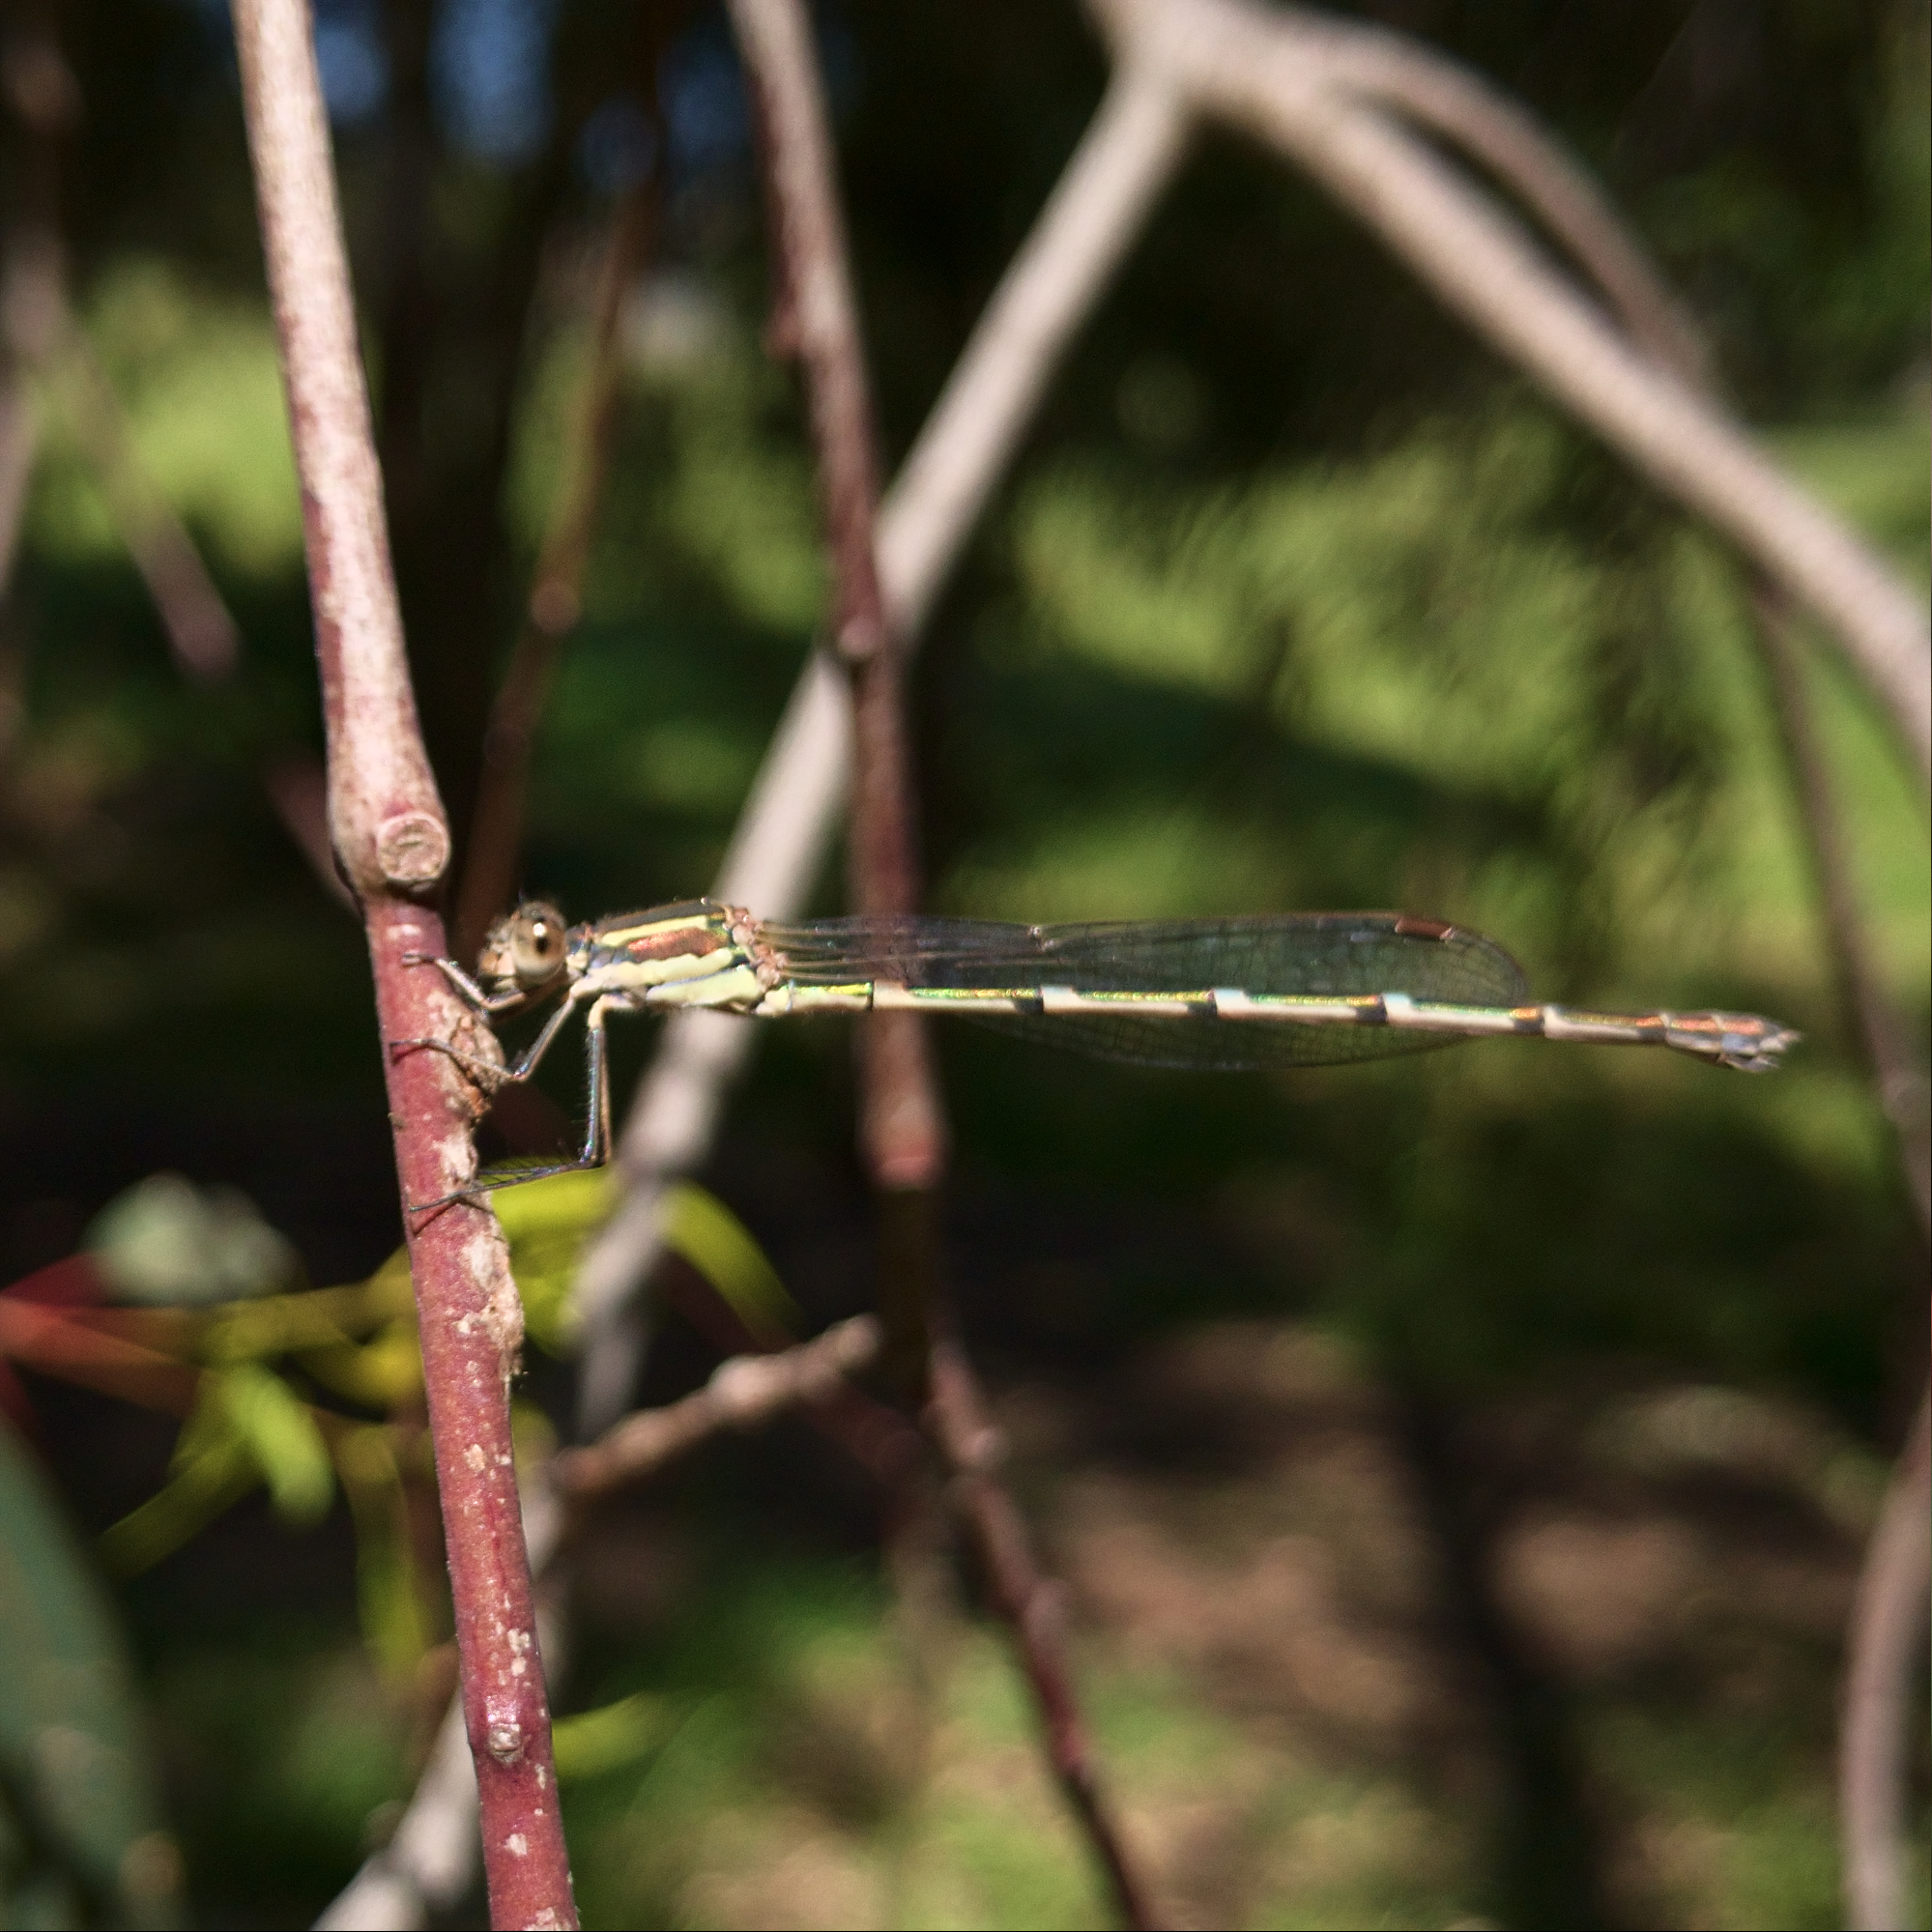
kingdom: Animalia
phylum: Arthropoda
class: Insecta
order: Odonata
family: Lestidae
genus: Austrolestes
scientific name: Austrolestes leda
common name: Wandering ringtail
